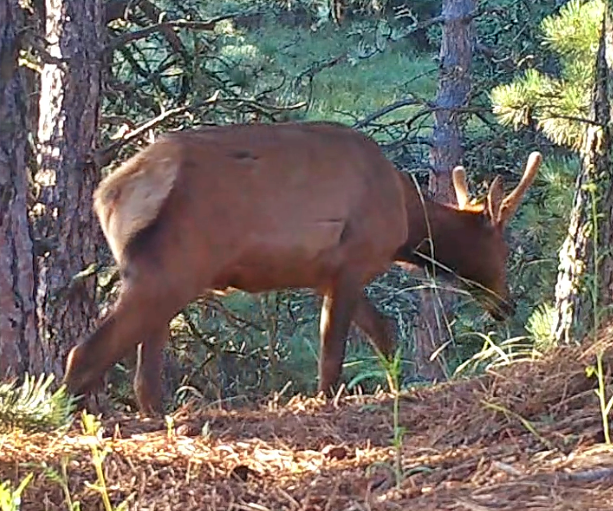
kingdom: Animalia
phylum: Chordata
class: Mammalia
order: Artiodactyla
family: Cervidae
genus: Cervus
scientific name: Cervus elaphus
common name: Red deer
